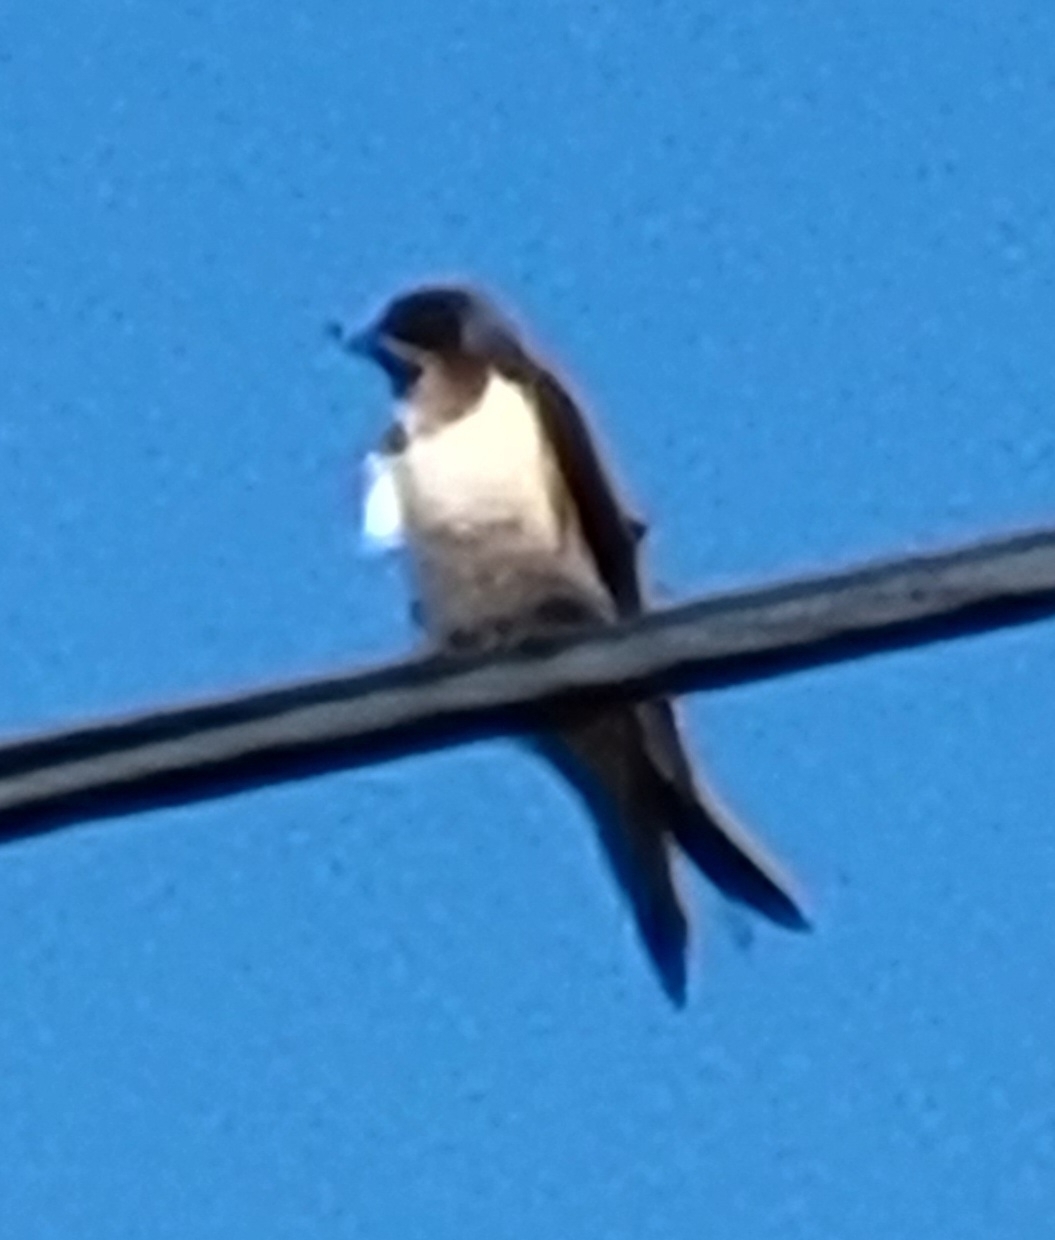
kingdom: Animalia
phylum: Chordata
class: Aves
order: Passeriformes
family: Hirundinidae
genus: Hirundo
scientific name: Hirundo rustica
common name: Barn swallow
